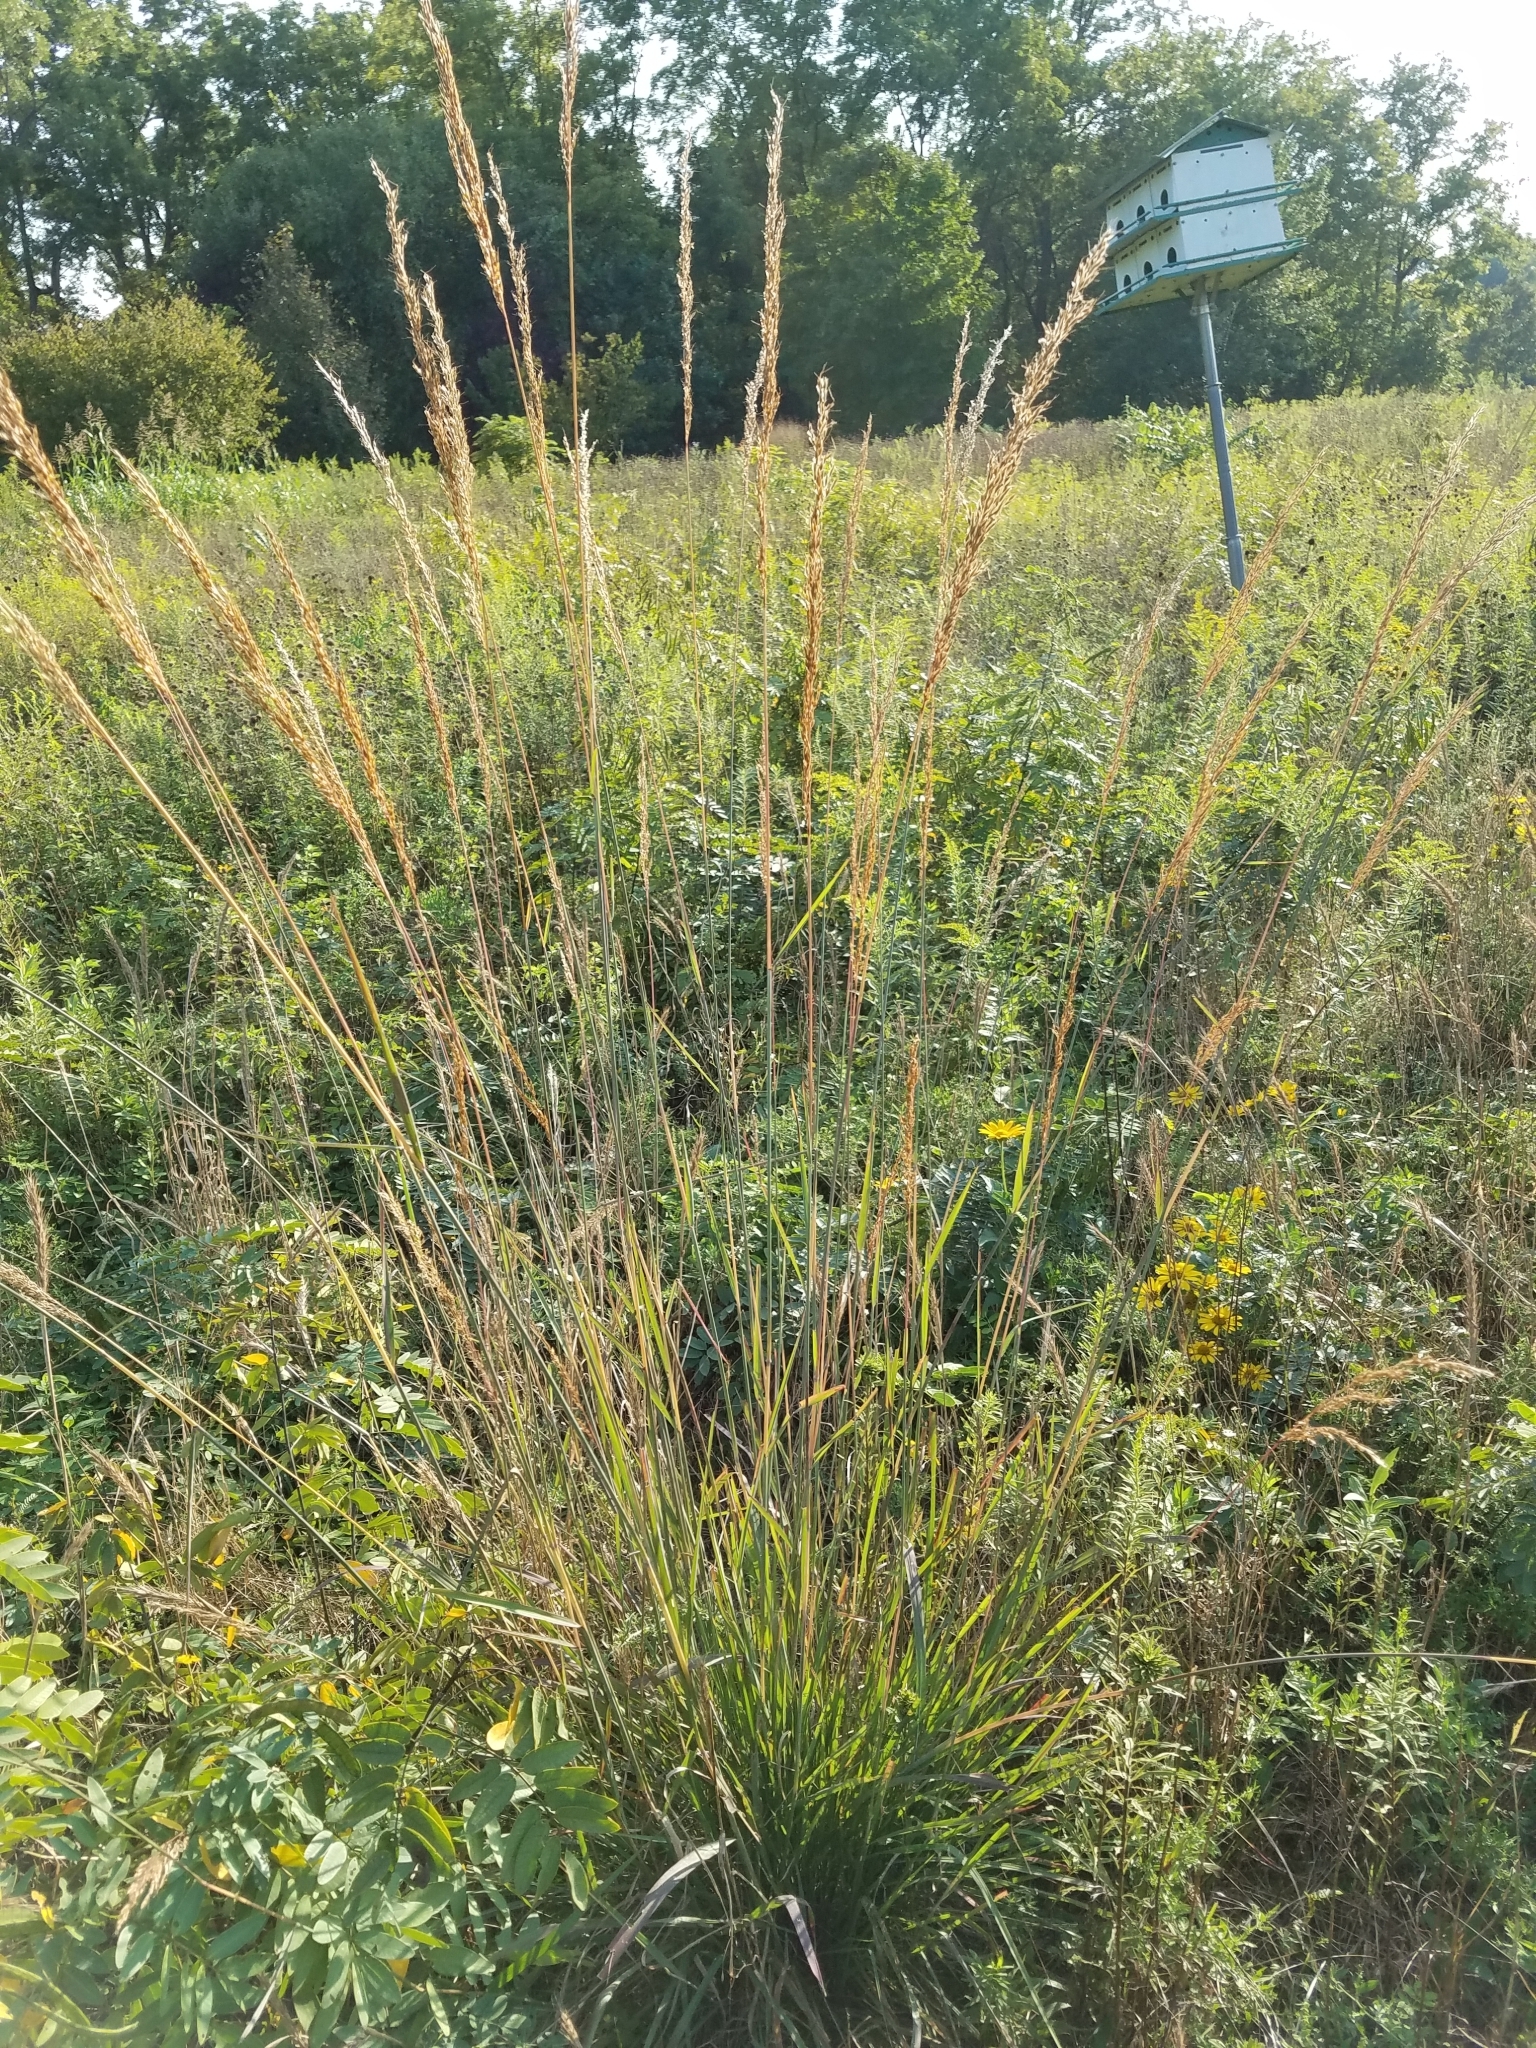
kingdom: Plantae
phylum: Tracheophyta
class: Liliopsida
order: Poales
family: Poaceae
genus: Sorghastrum
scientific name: Sorghastrum nutans
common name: Indian grass
